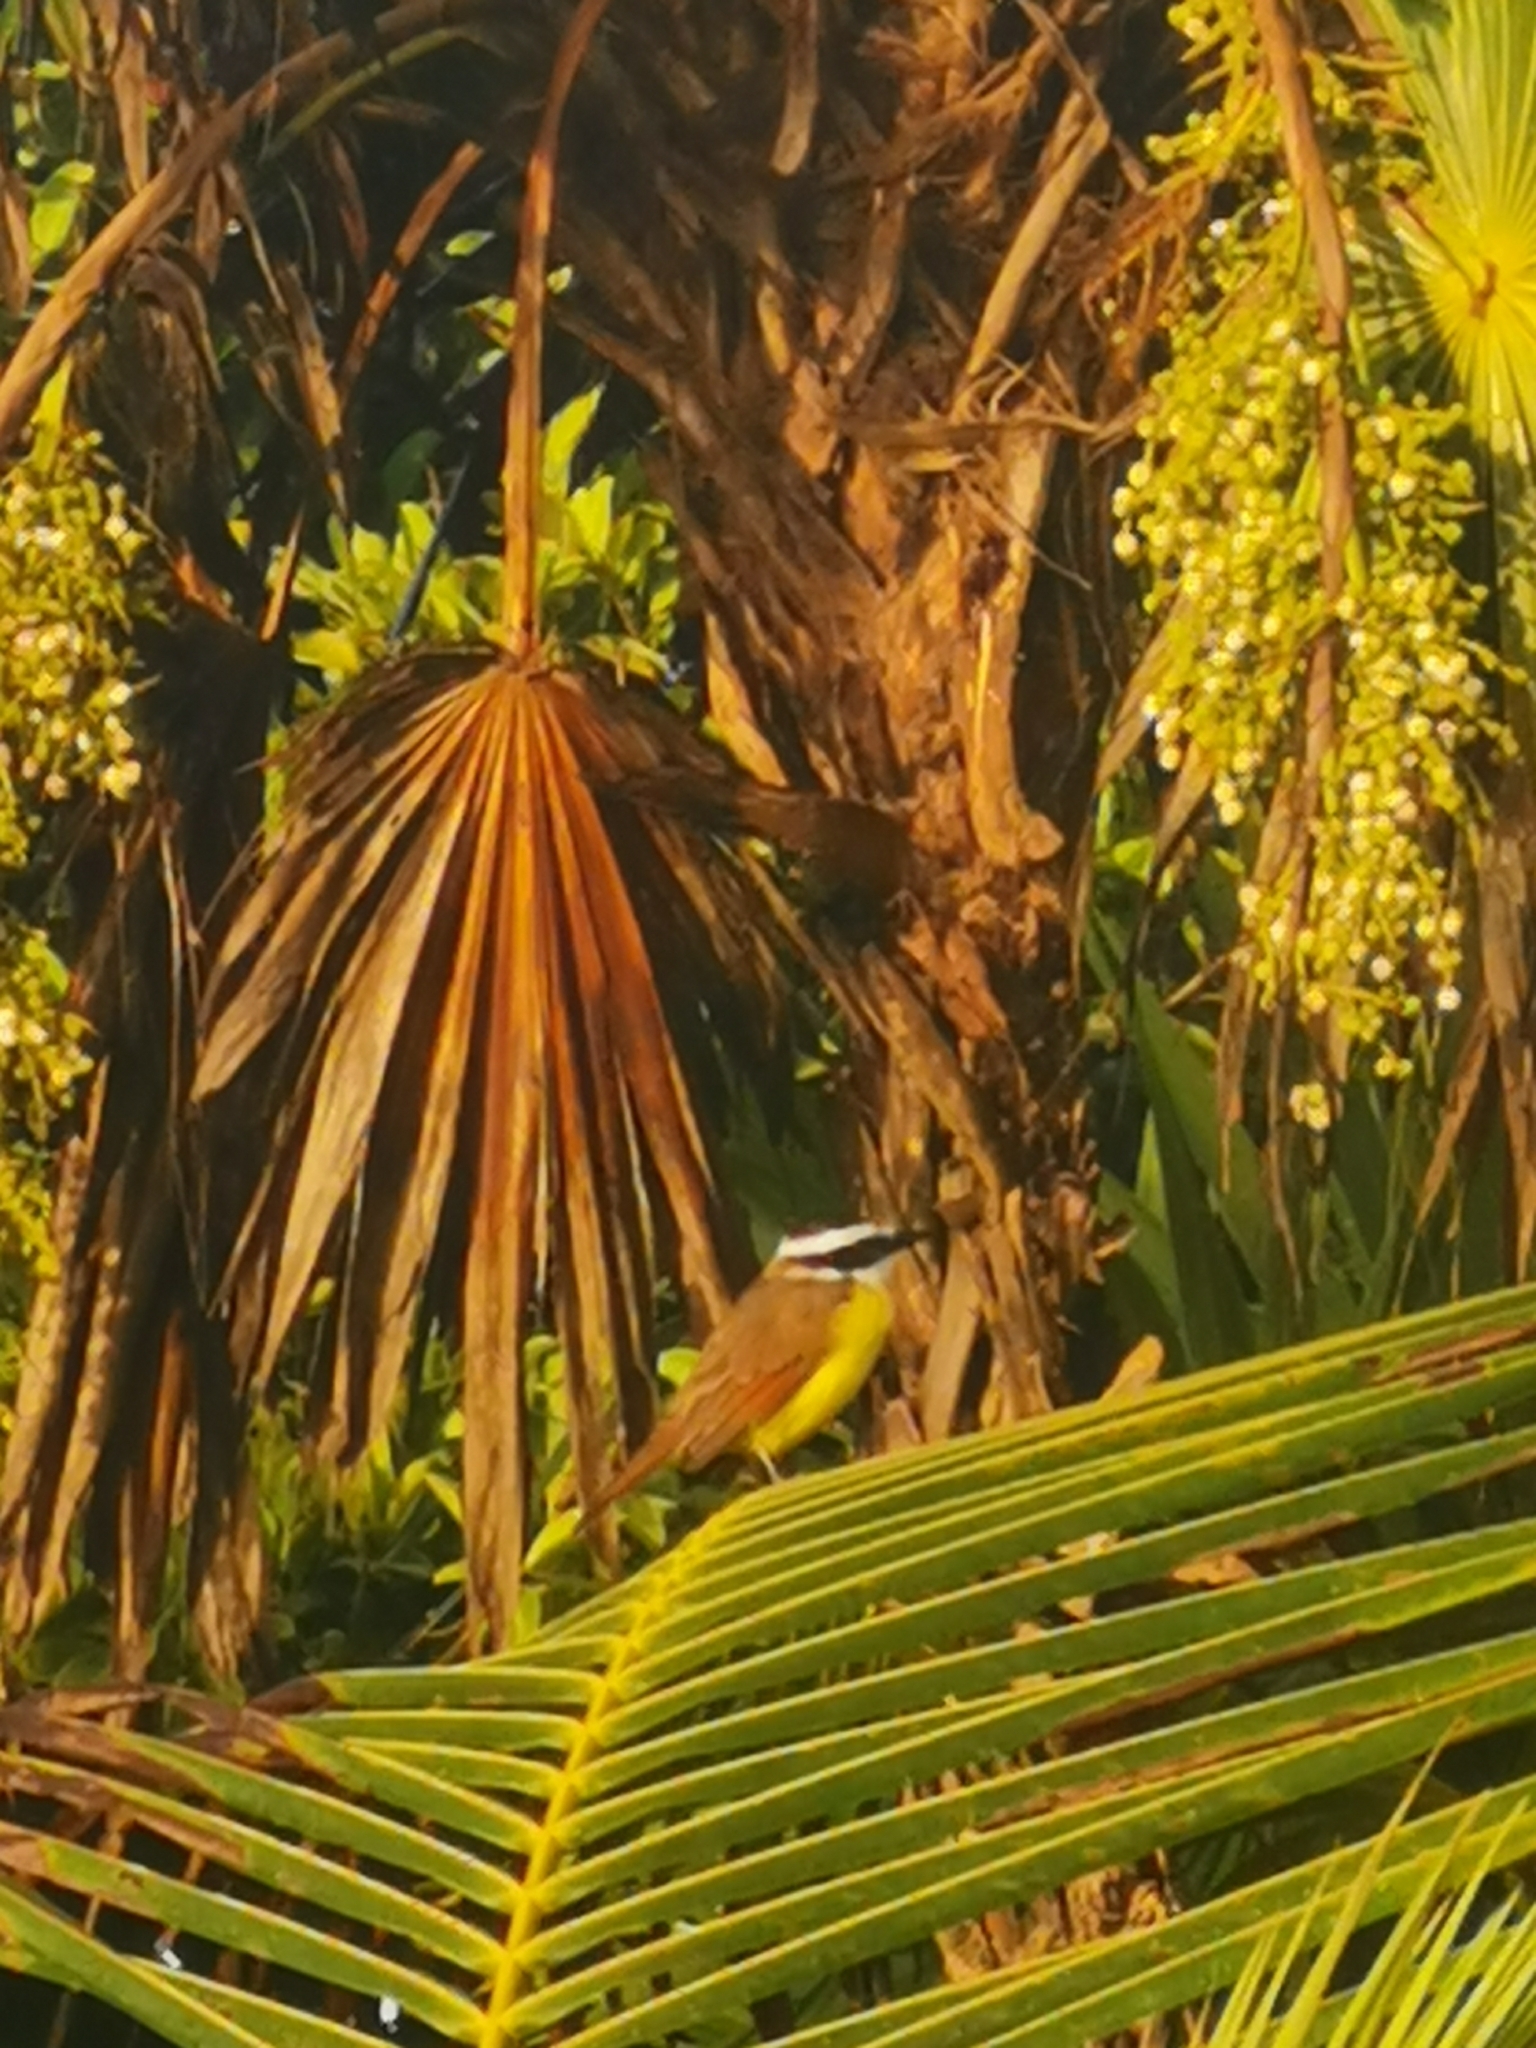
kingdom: Animalia
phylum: Chordata
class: Aves
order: Passeriformes
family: Tyrannidae
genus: Pitangus
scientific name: Pitangus sulphuratus
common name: Great kiskadee
